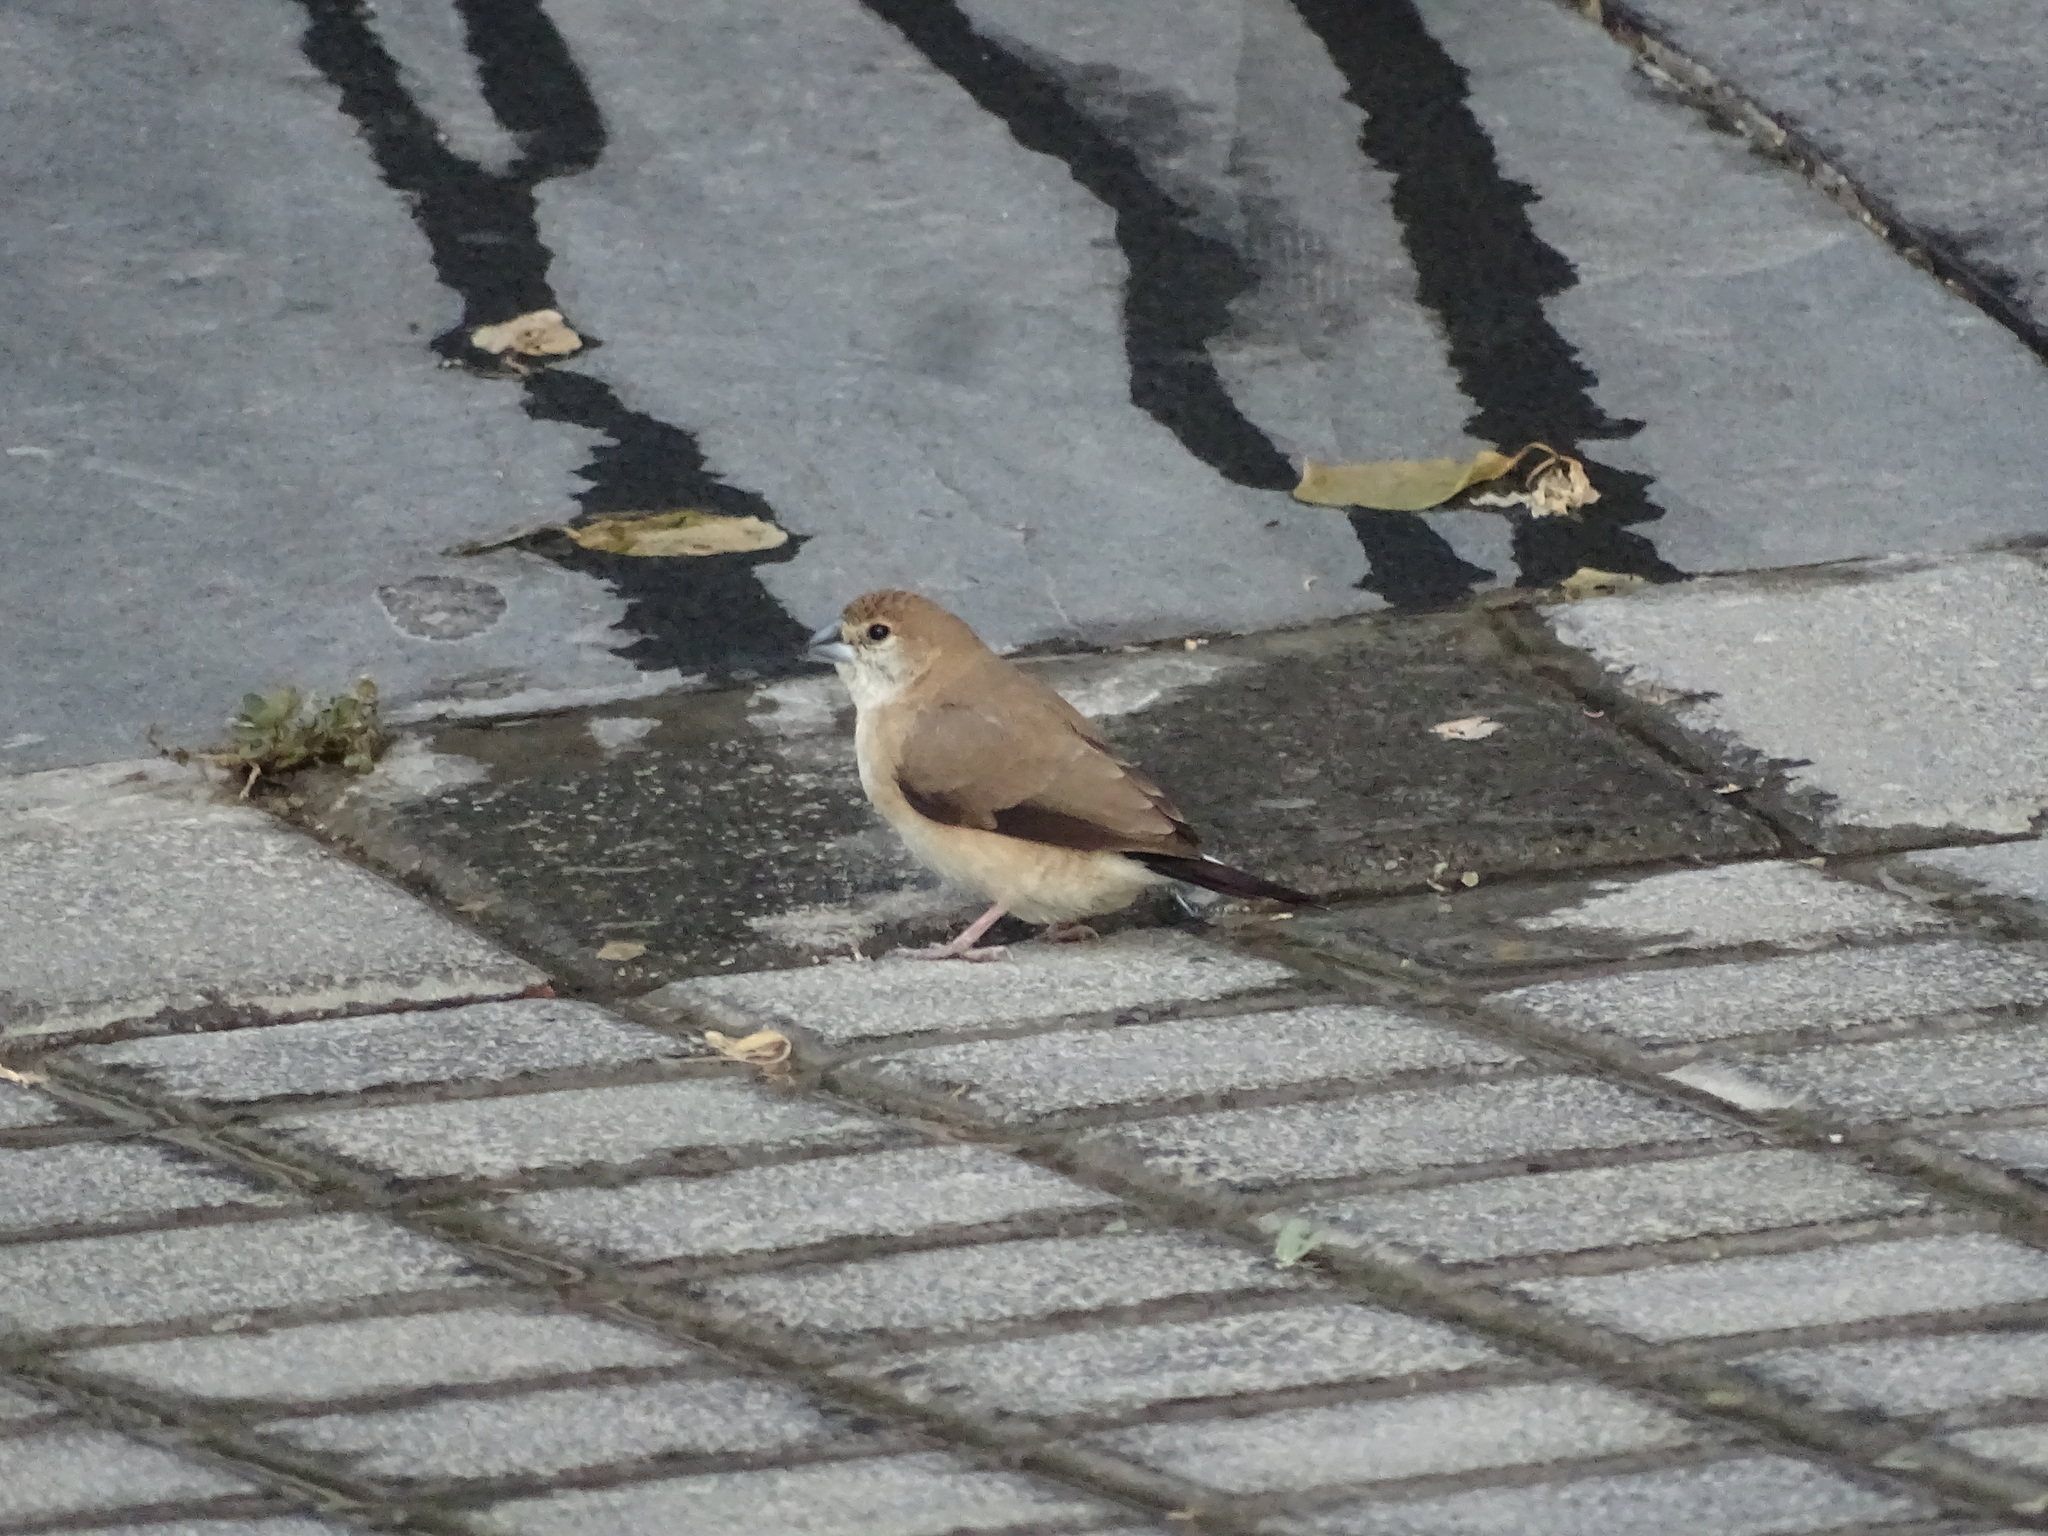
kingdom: Animalia
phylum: Chordata
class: Aves
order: Passeriformes
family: Estrildidae
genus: Euodice
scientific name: Euodice malabarica
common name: Indian silverbill
